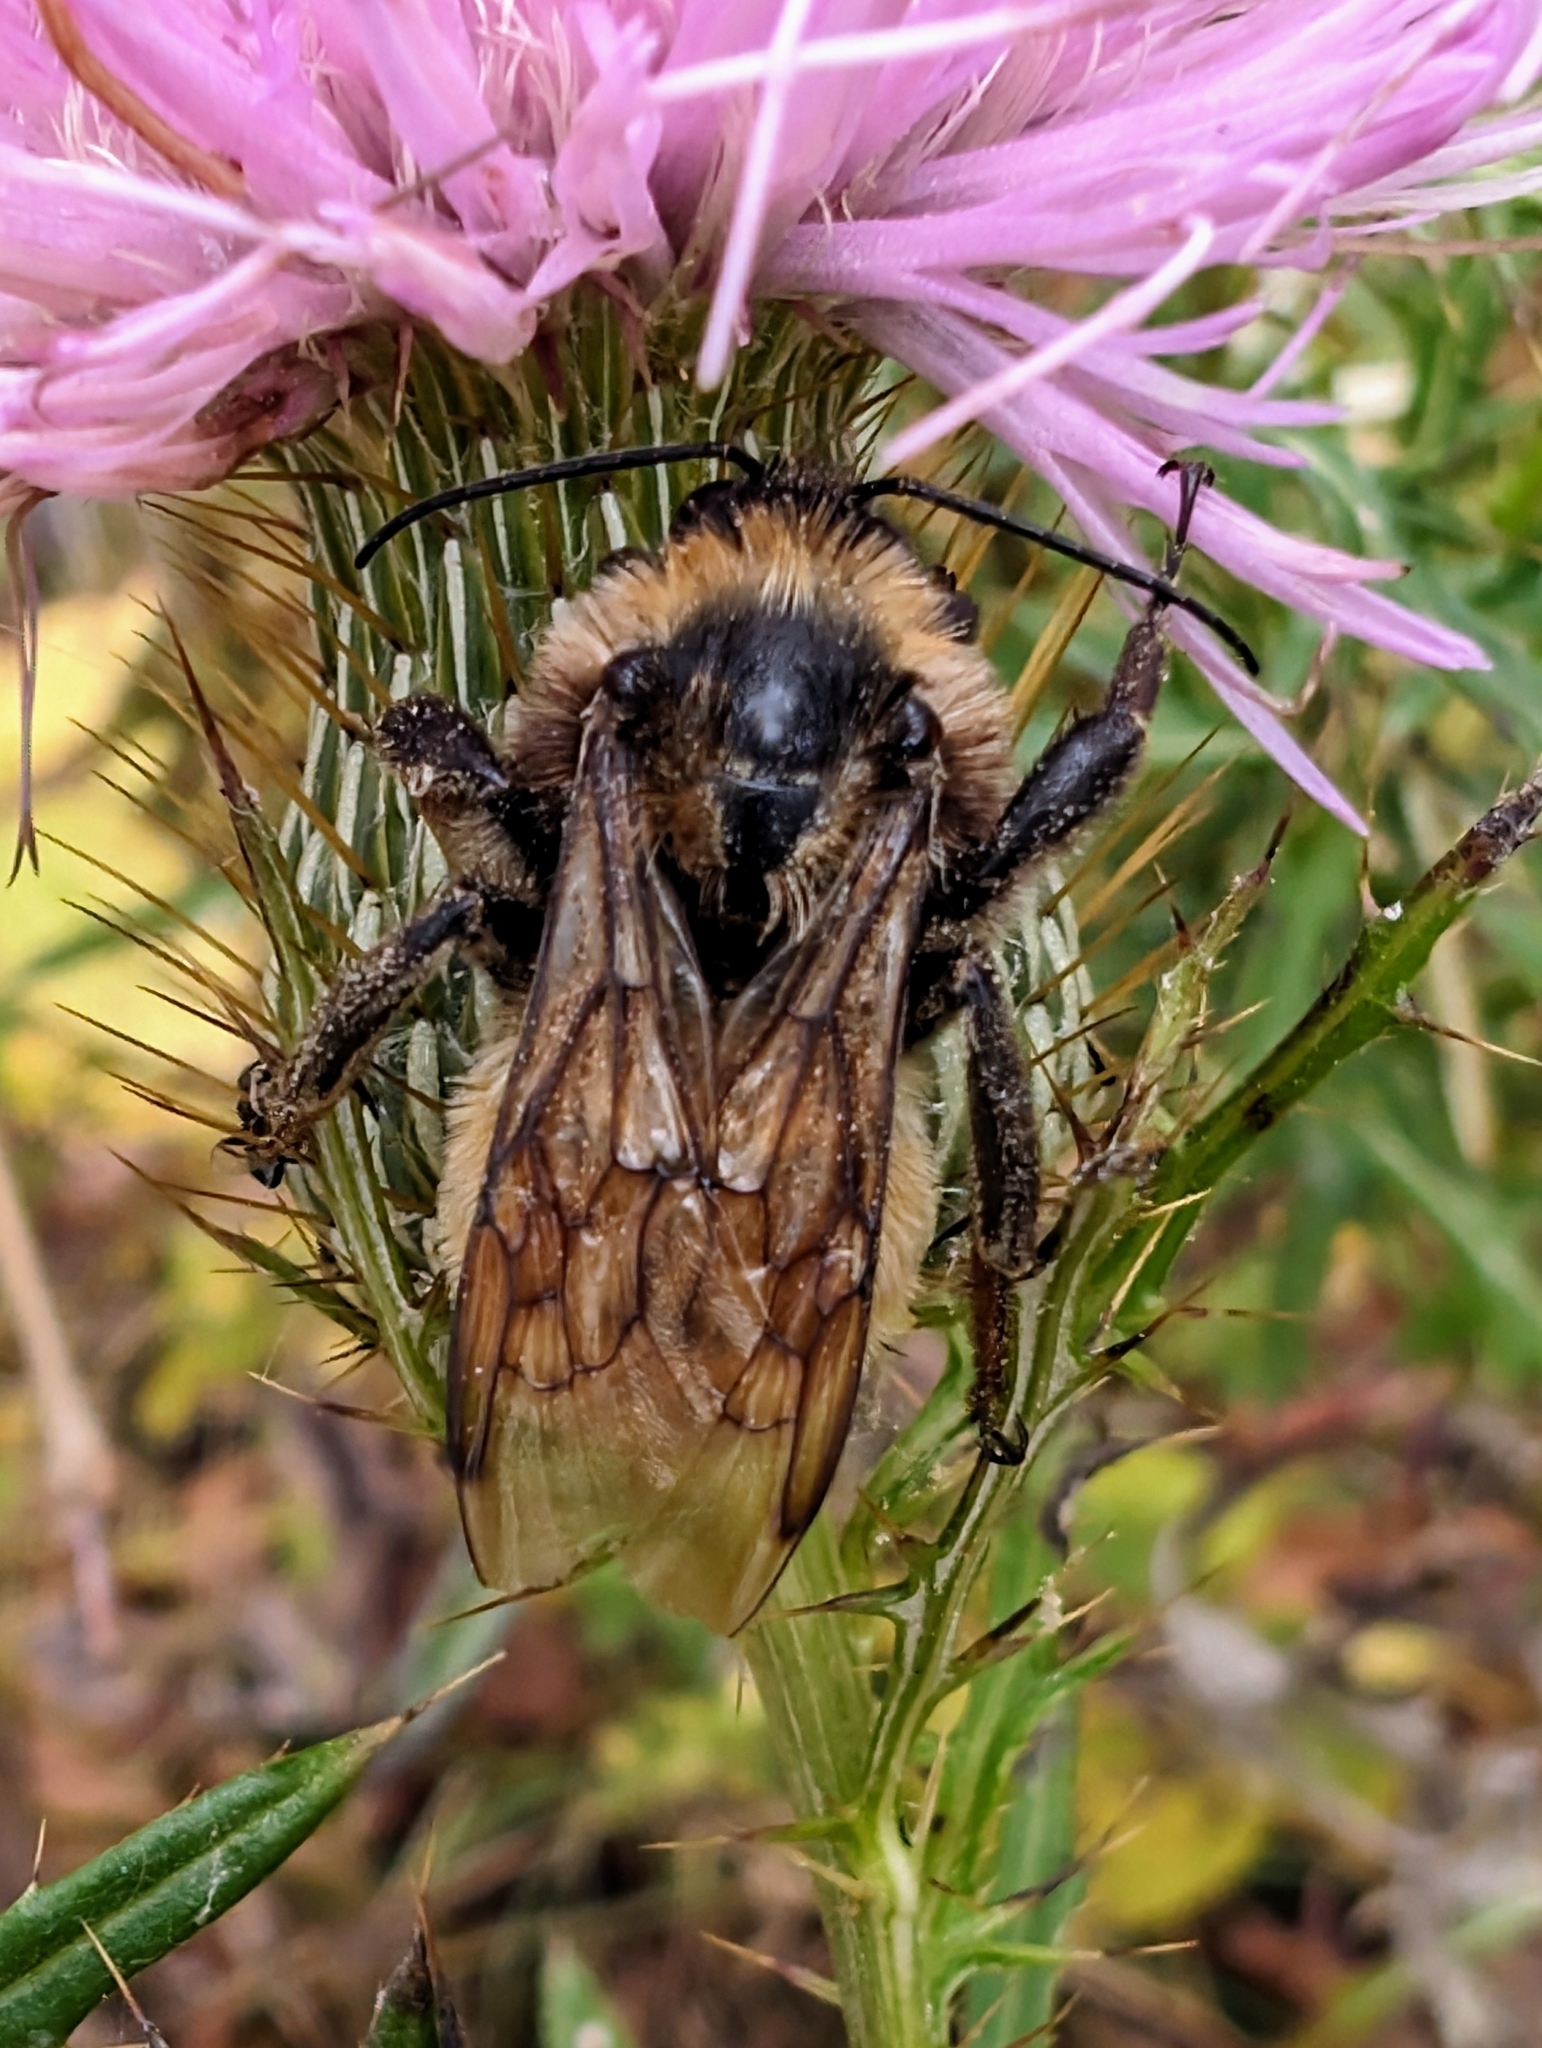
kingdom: Animalia
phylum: Arthropoda
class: Insecta
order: Hymenoptera
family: Apidae
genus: Bombus
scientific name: Bombus pensylvanicus
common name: Bumble bee
